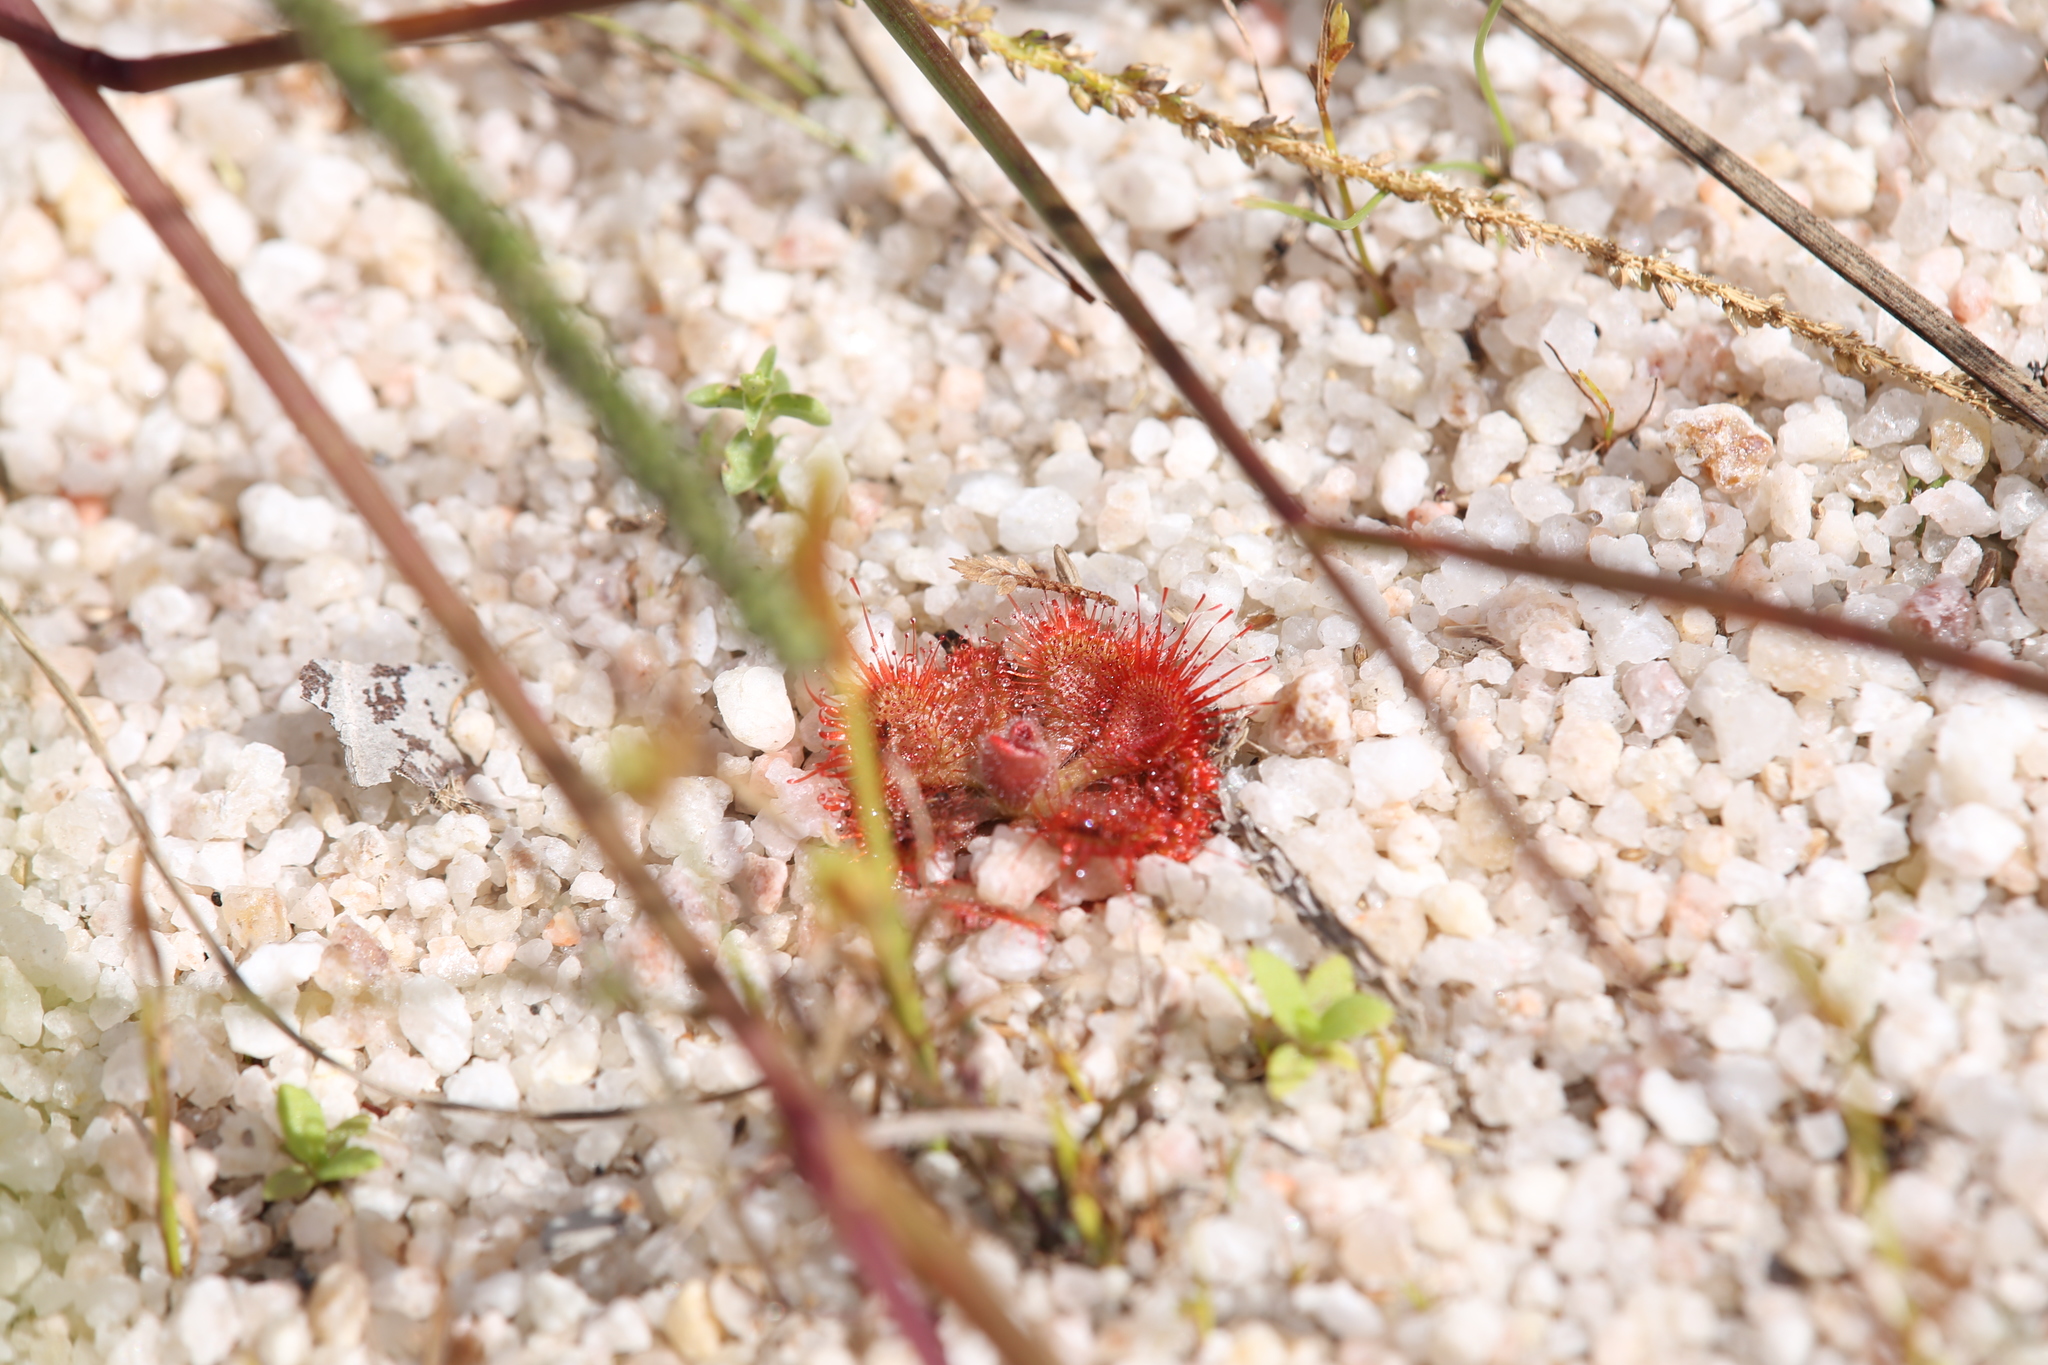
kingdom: Plantae
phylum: Tracheophyta
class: Magnoliopsida
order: Caryophyllales
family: Droseraceae
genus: Drosera
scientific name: Drosera spatulata
